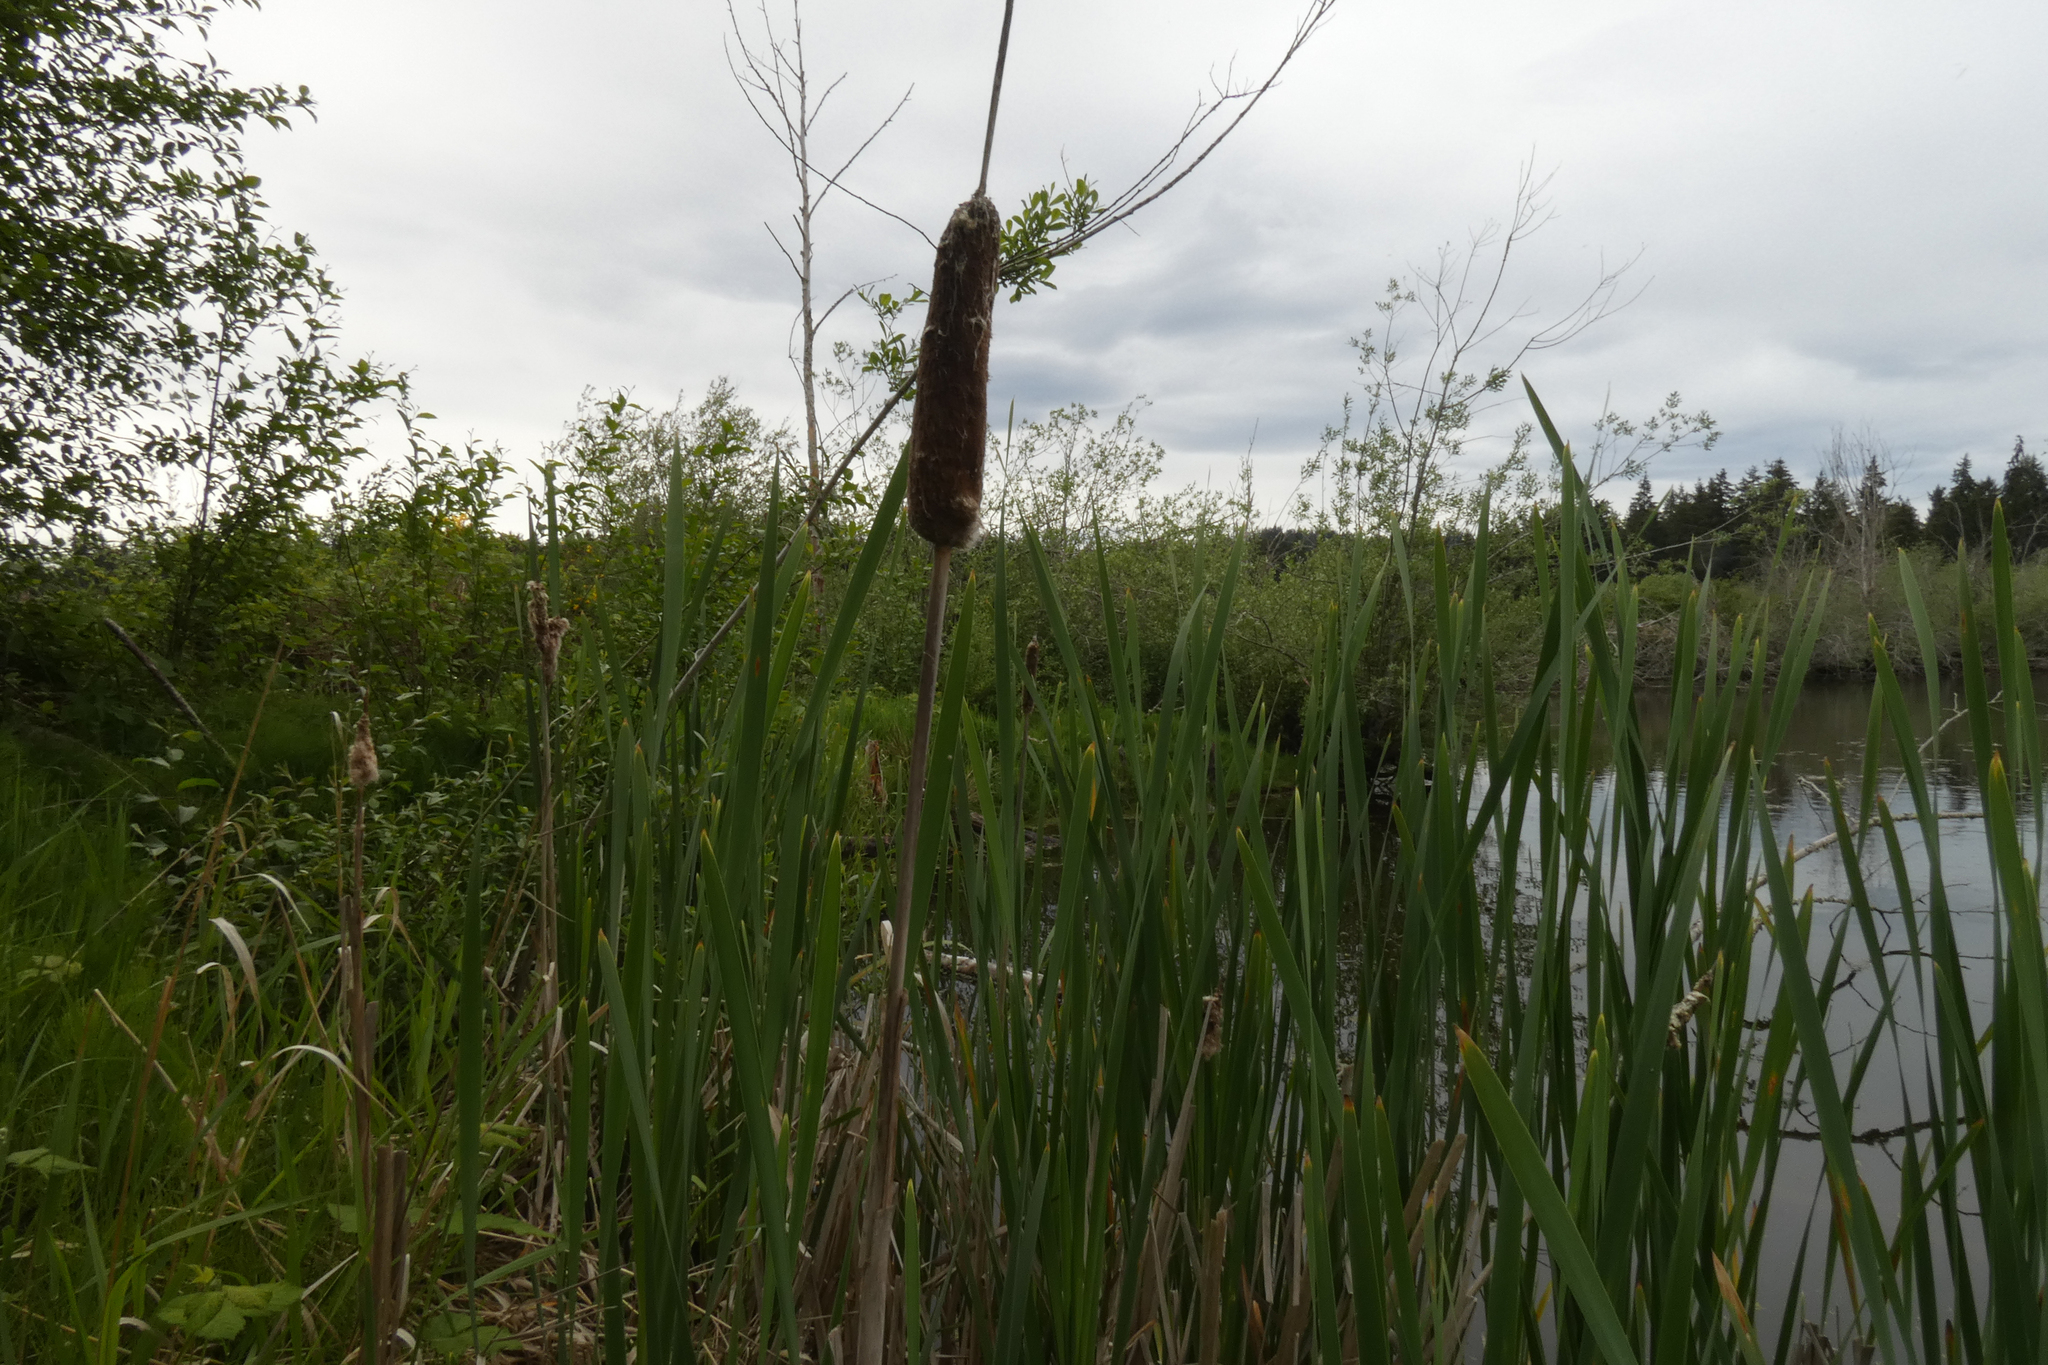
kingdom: Plantae
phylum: Tracheophyta
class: Liliopsida
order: Poales
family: Typhaceae
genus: Typha
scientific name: Typha latifolia
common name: Broadleaf cattail
